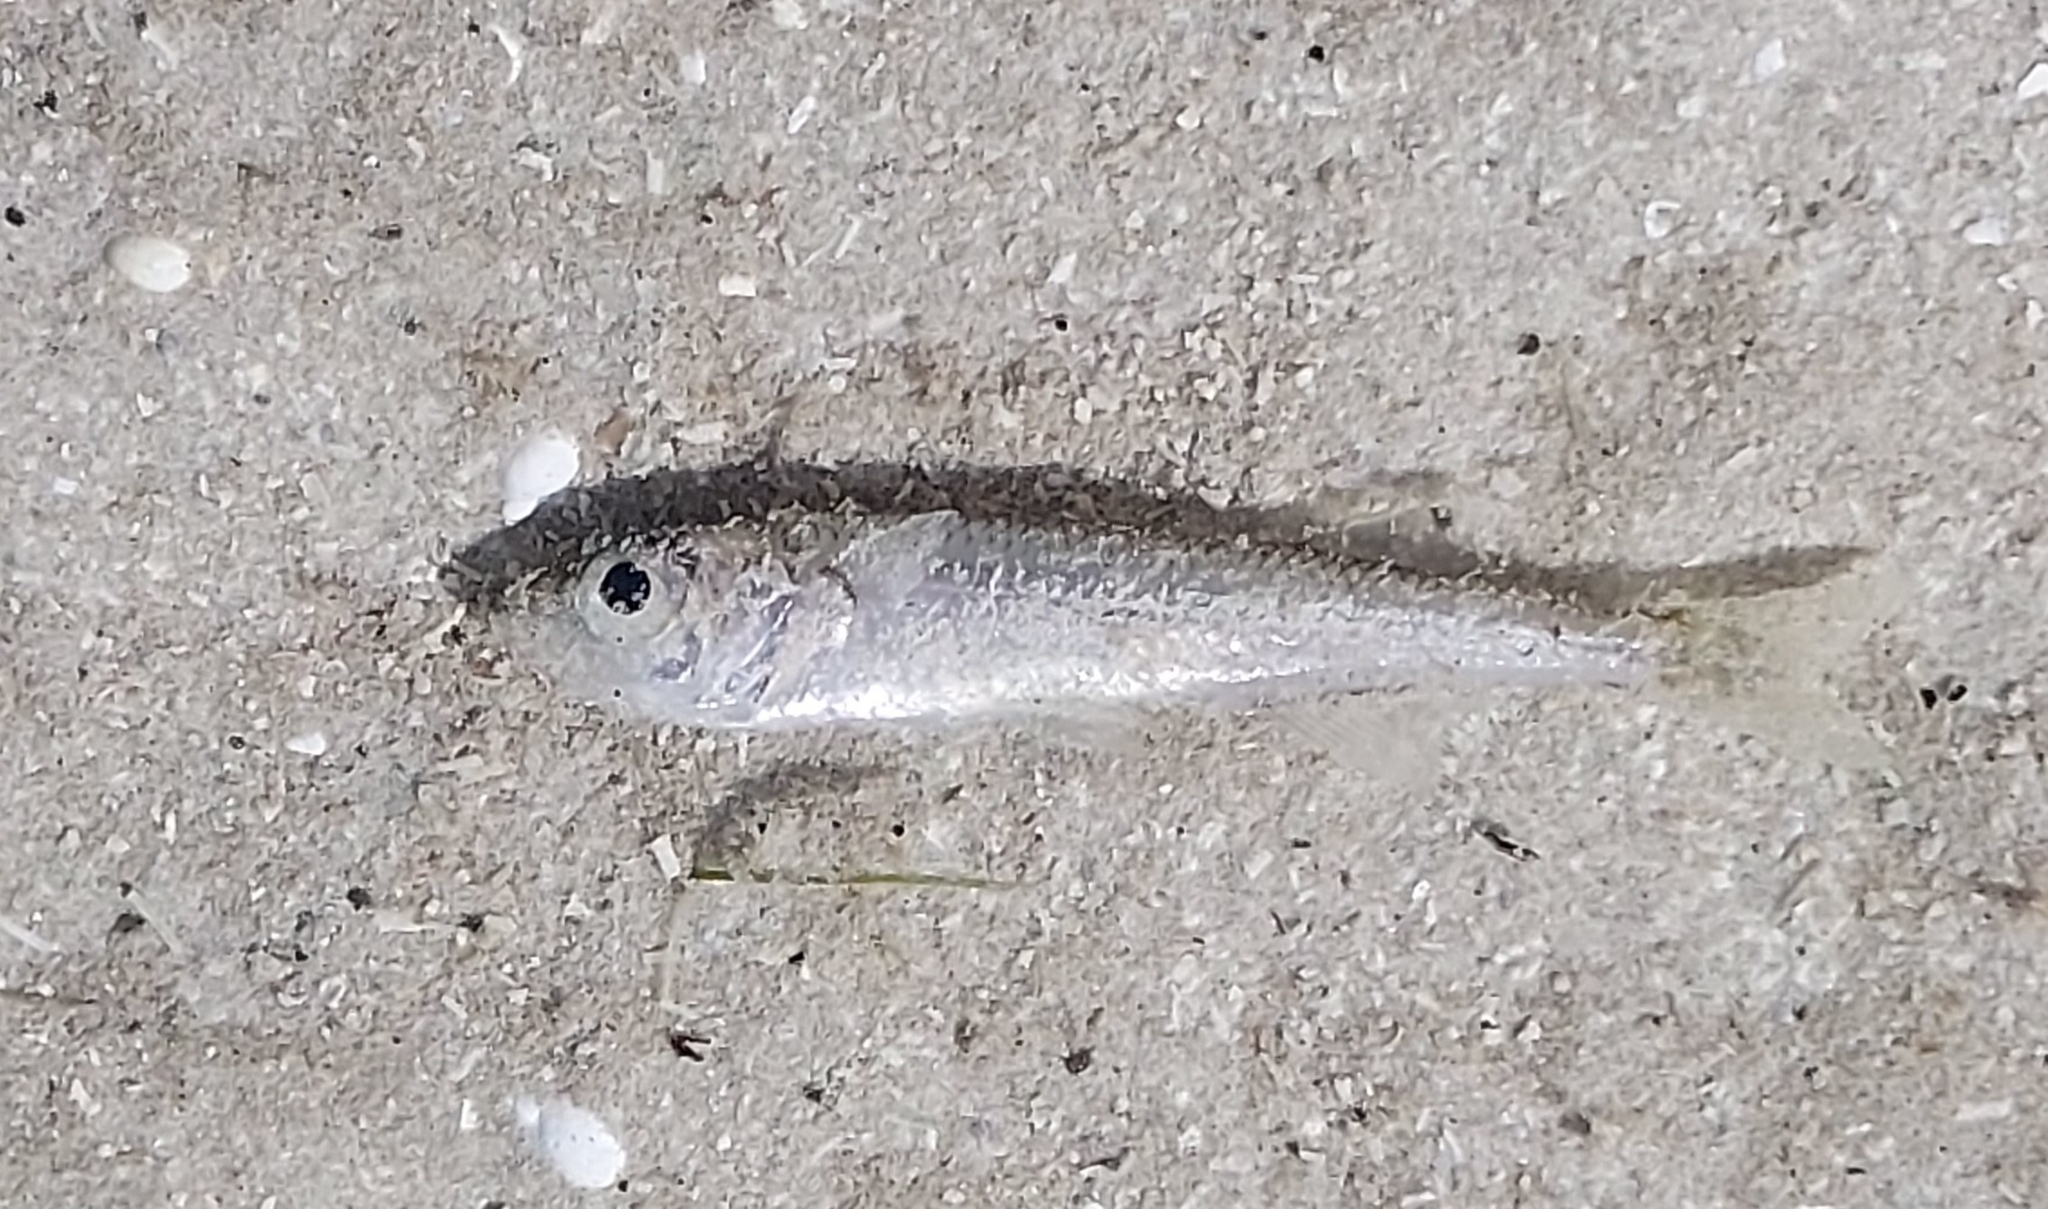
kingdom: Animalia
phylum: Chordata
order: Atheriniformes
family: Atherinidae
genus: Atherina
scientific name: Atherina boyeri
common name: Big-scale sand smelt
